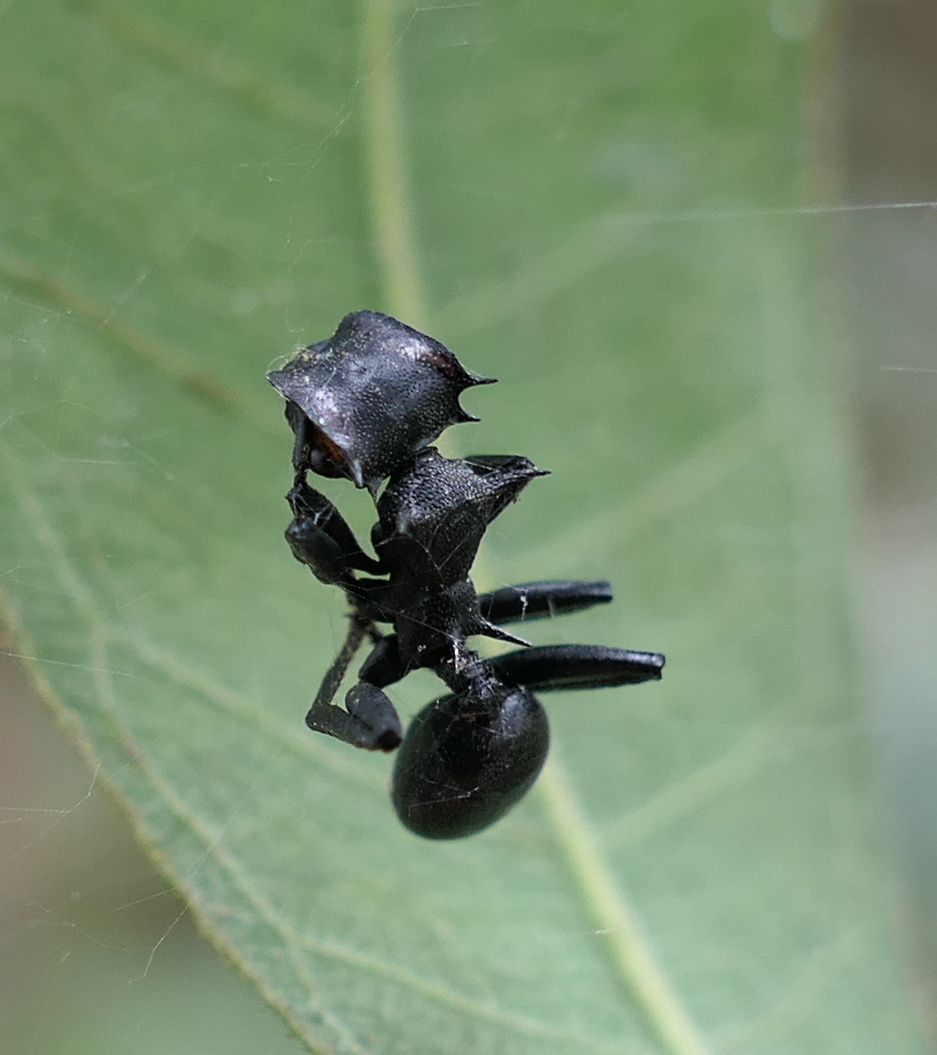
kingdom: Animalia
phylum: Arthropoda
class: Insecta
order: Hymenoptera
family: Formicidae
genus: Cephalotes
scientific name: Cephalotes atratus
